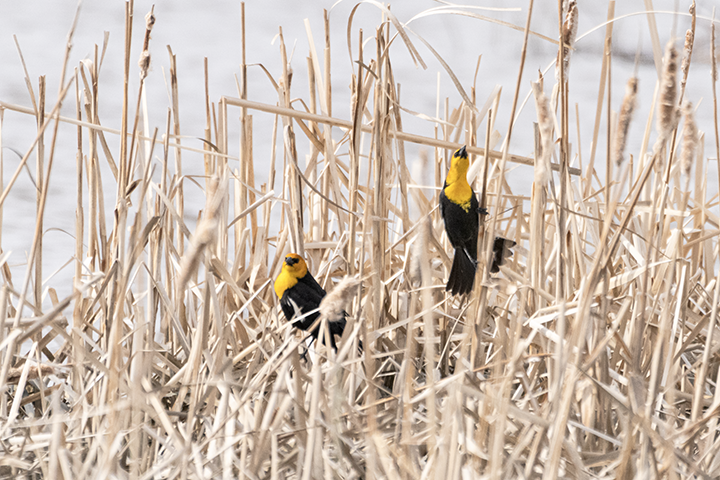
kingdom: Animalia
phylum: Chordata
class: Aves
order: Passeriformes
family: Icteridae
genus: Xanthocephalus
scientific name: Xanthocephalus xanthocephalus
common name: Yellow-headed blackbird
